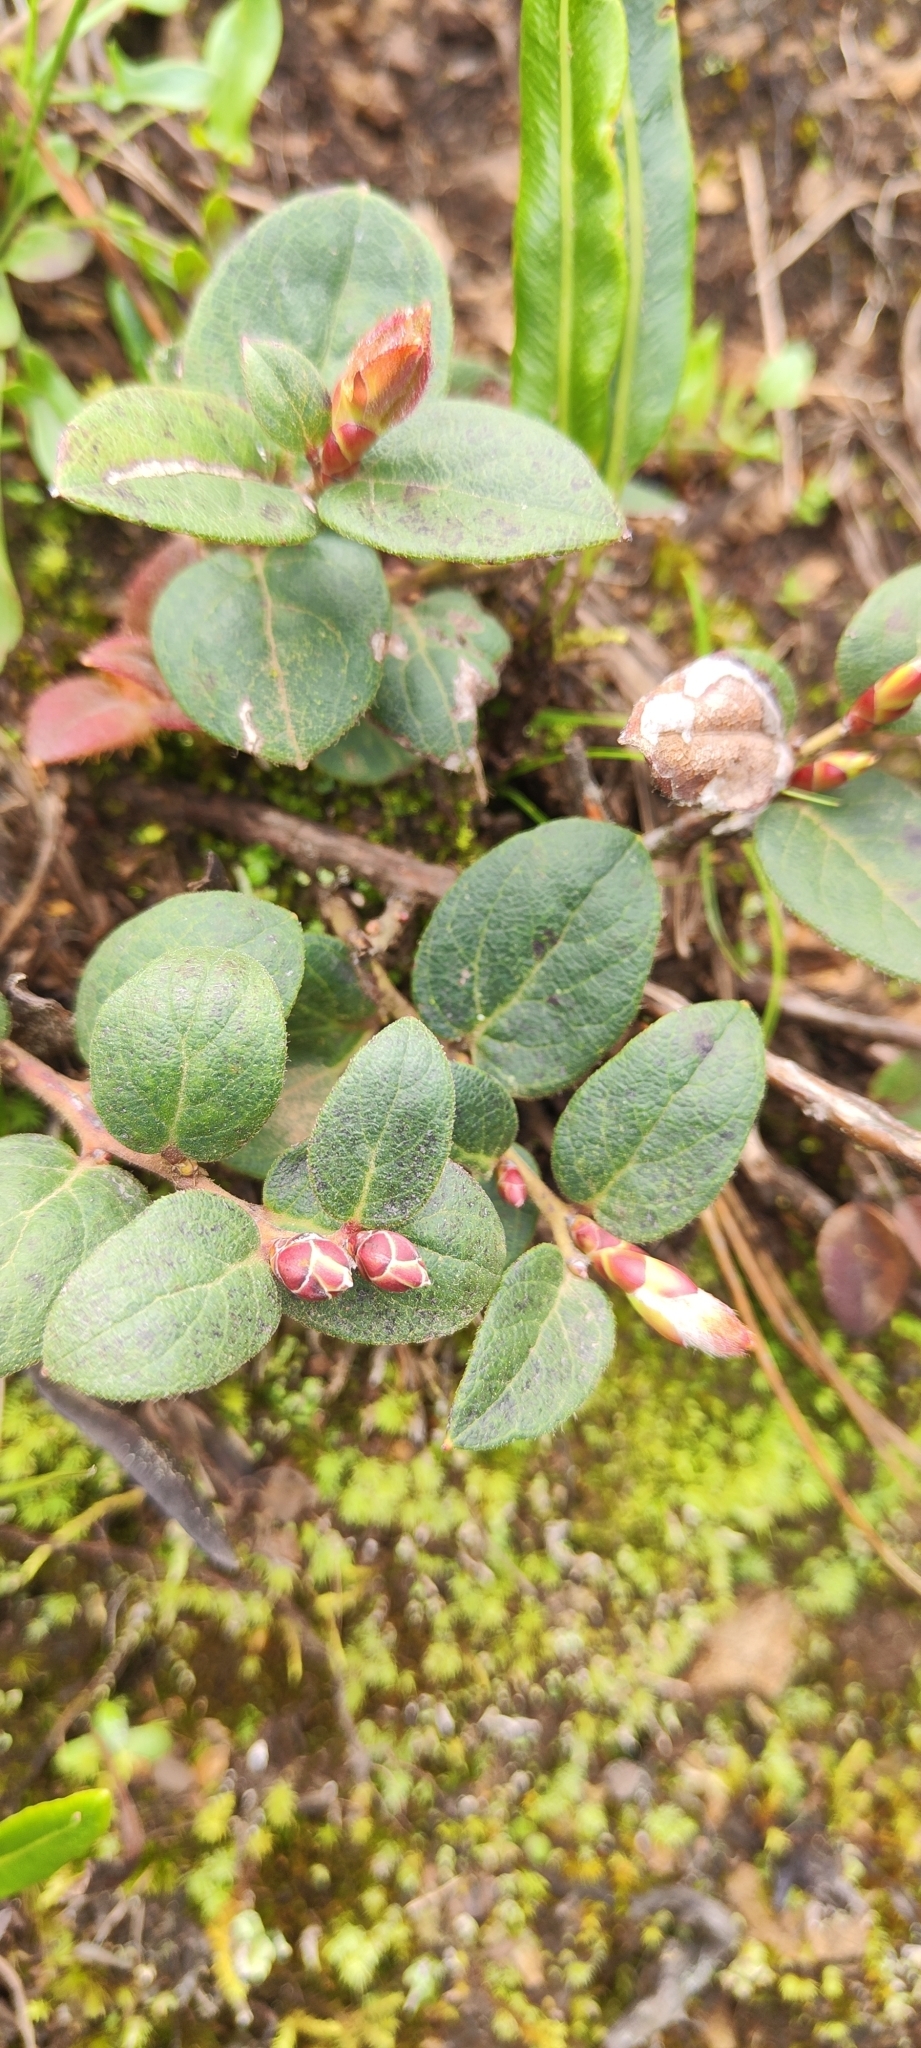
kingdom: Plantae
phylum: Tracheophyta
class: Magnoliopsida
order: Ericales
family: Ericaceae
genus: Gaultheria
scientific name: Gaultheria glomerata
